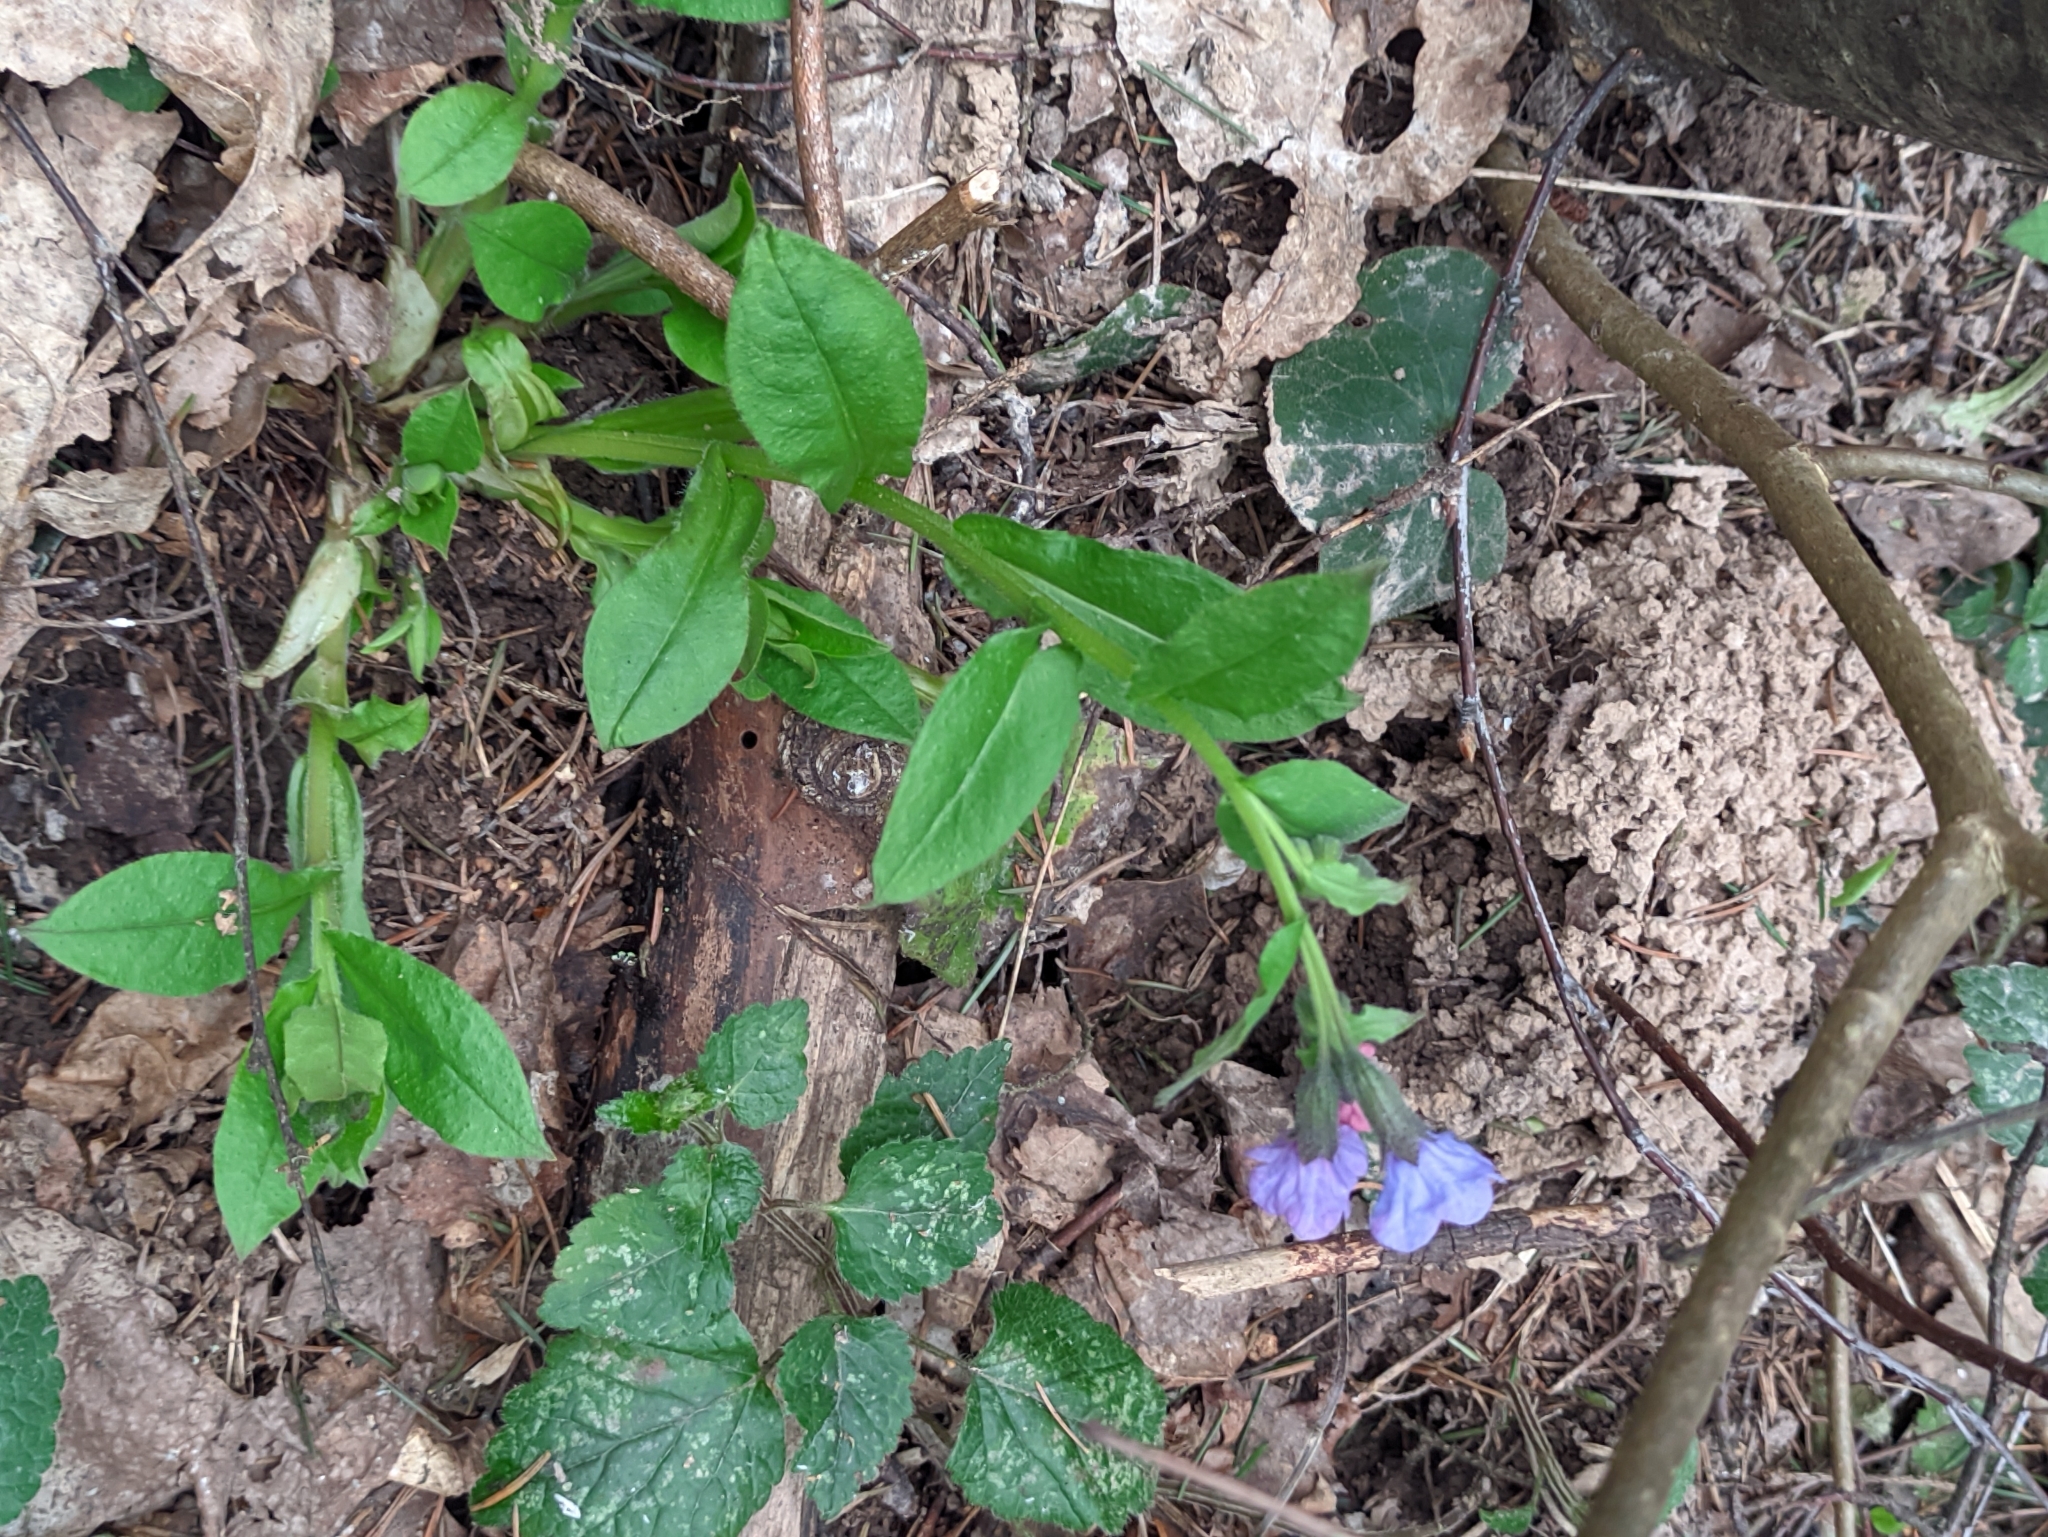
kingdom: Plantae
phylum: Tracheophyta
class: Magnoliopsida
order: Boraginales
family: Boraginaceae
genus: Pulmonaria
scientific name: Pulmonaria obscura
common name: Suffolk lungwort
